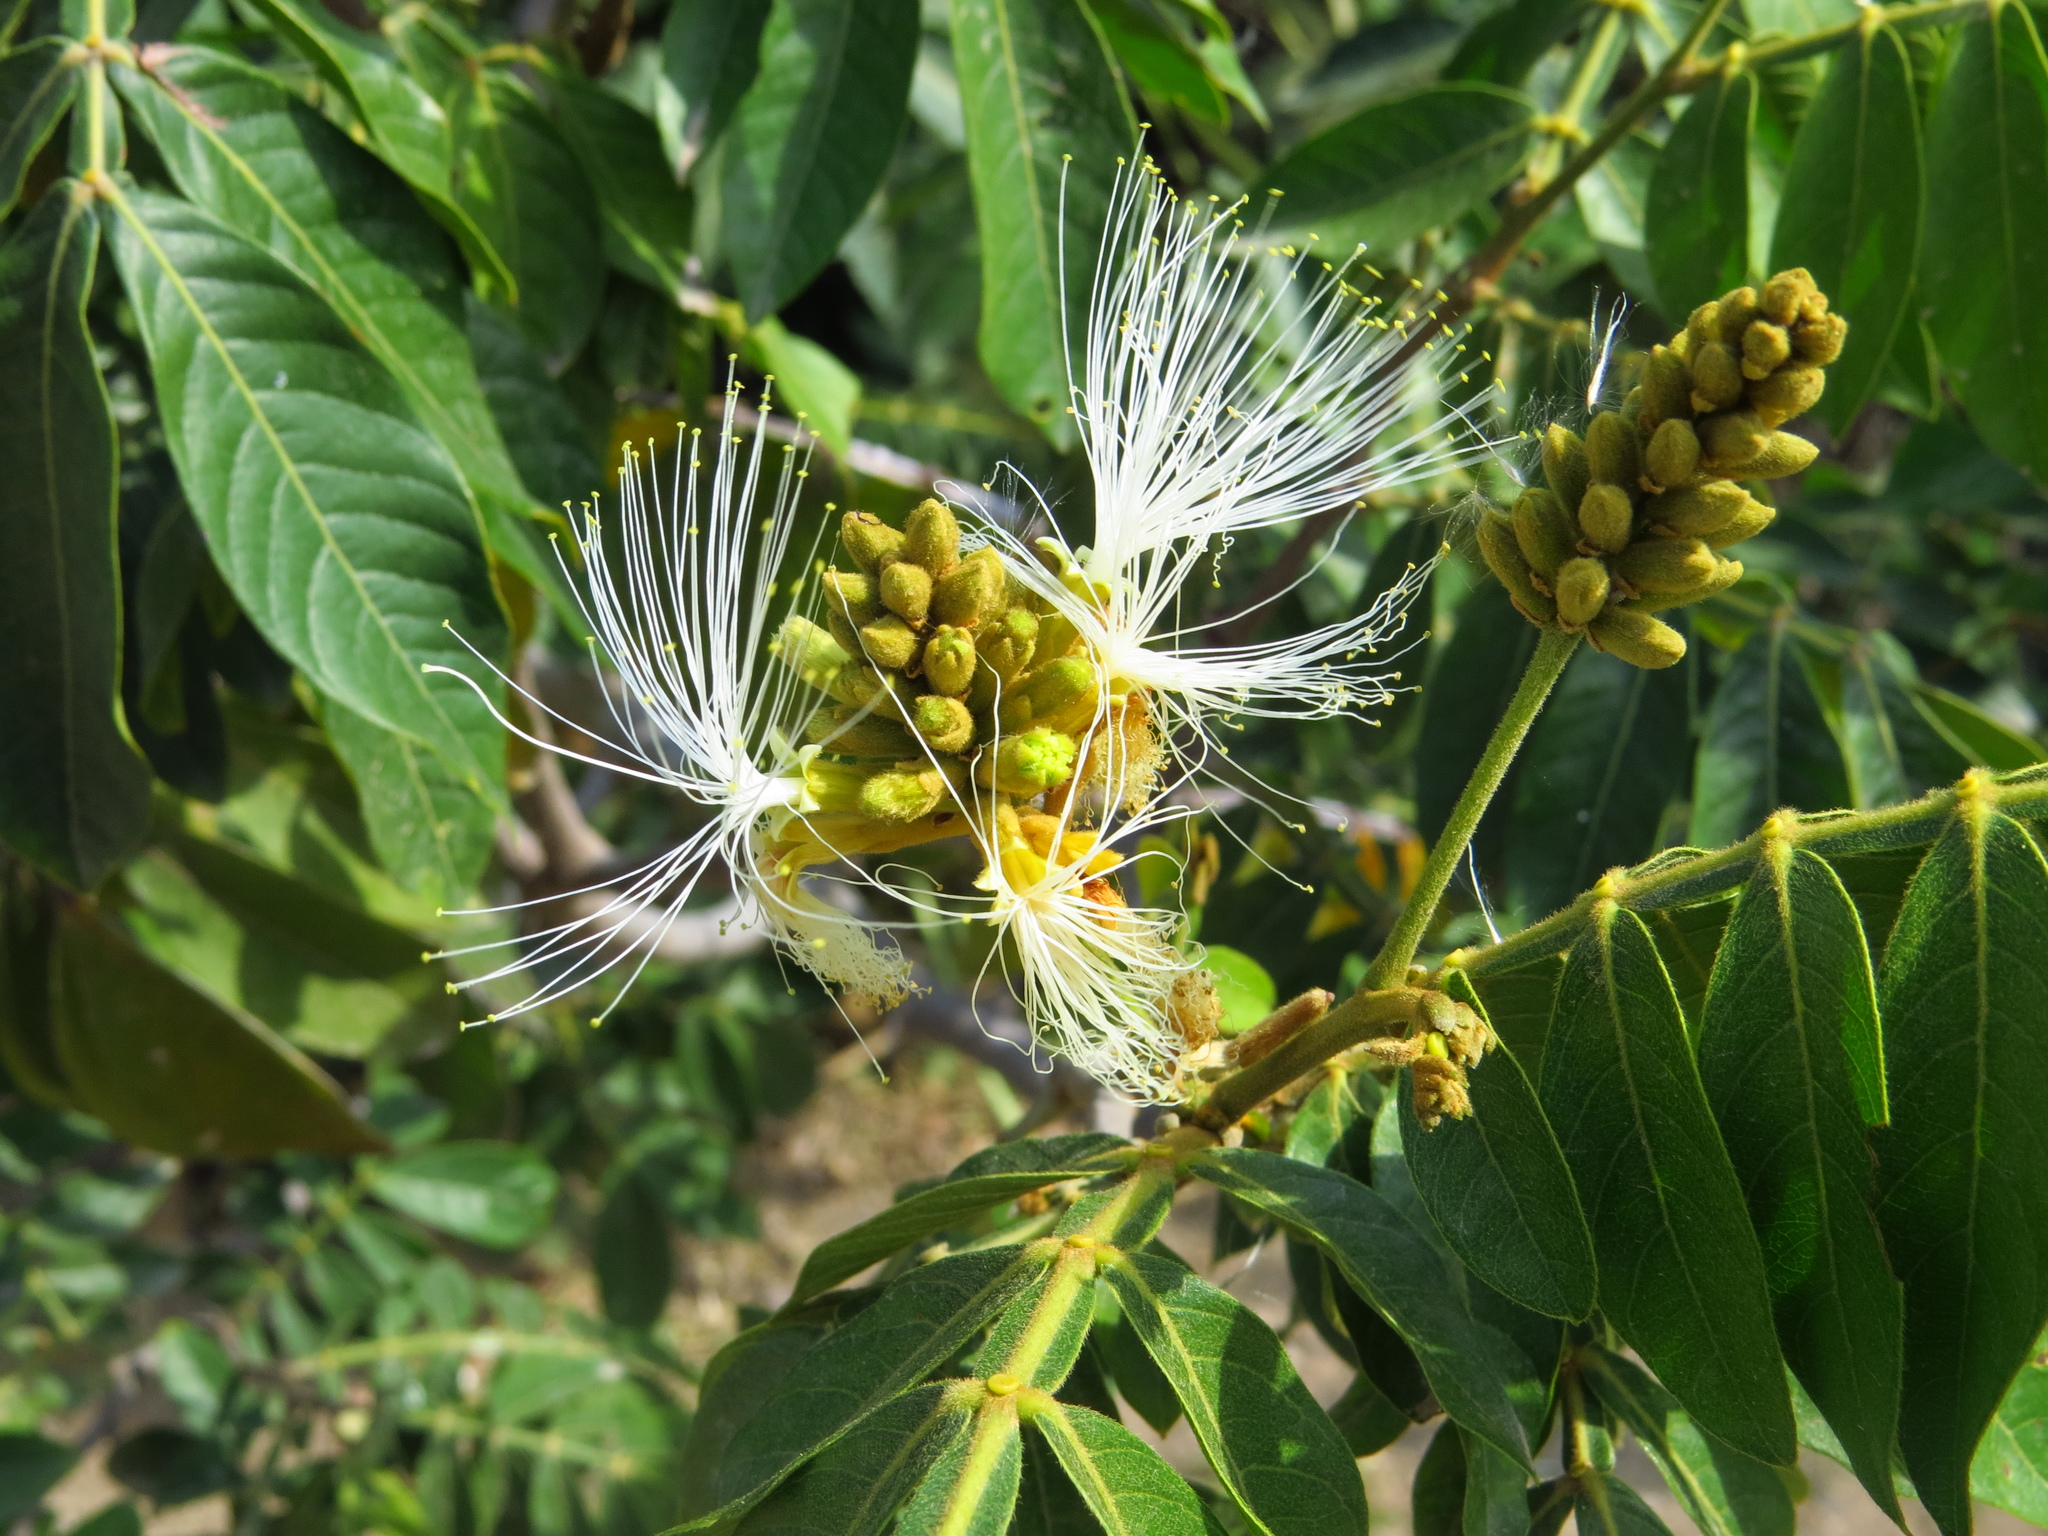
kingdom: Plantae
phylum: Tracheophyta
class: Magnoliopsida
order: Fabales
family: Fabaceae
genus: Inga
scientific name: Inga uraguensis
